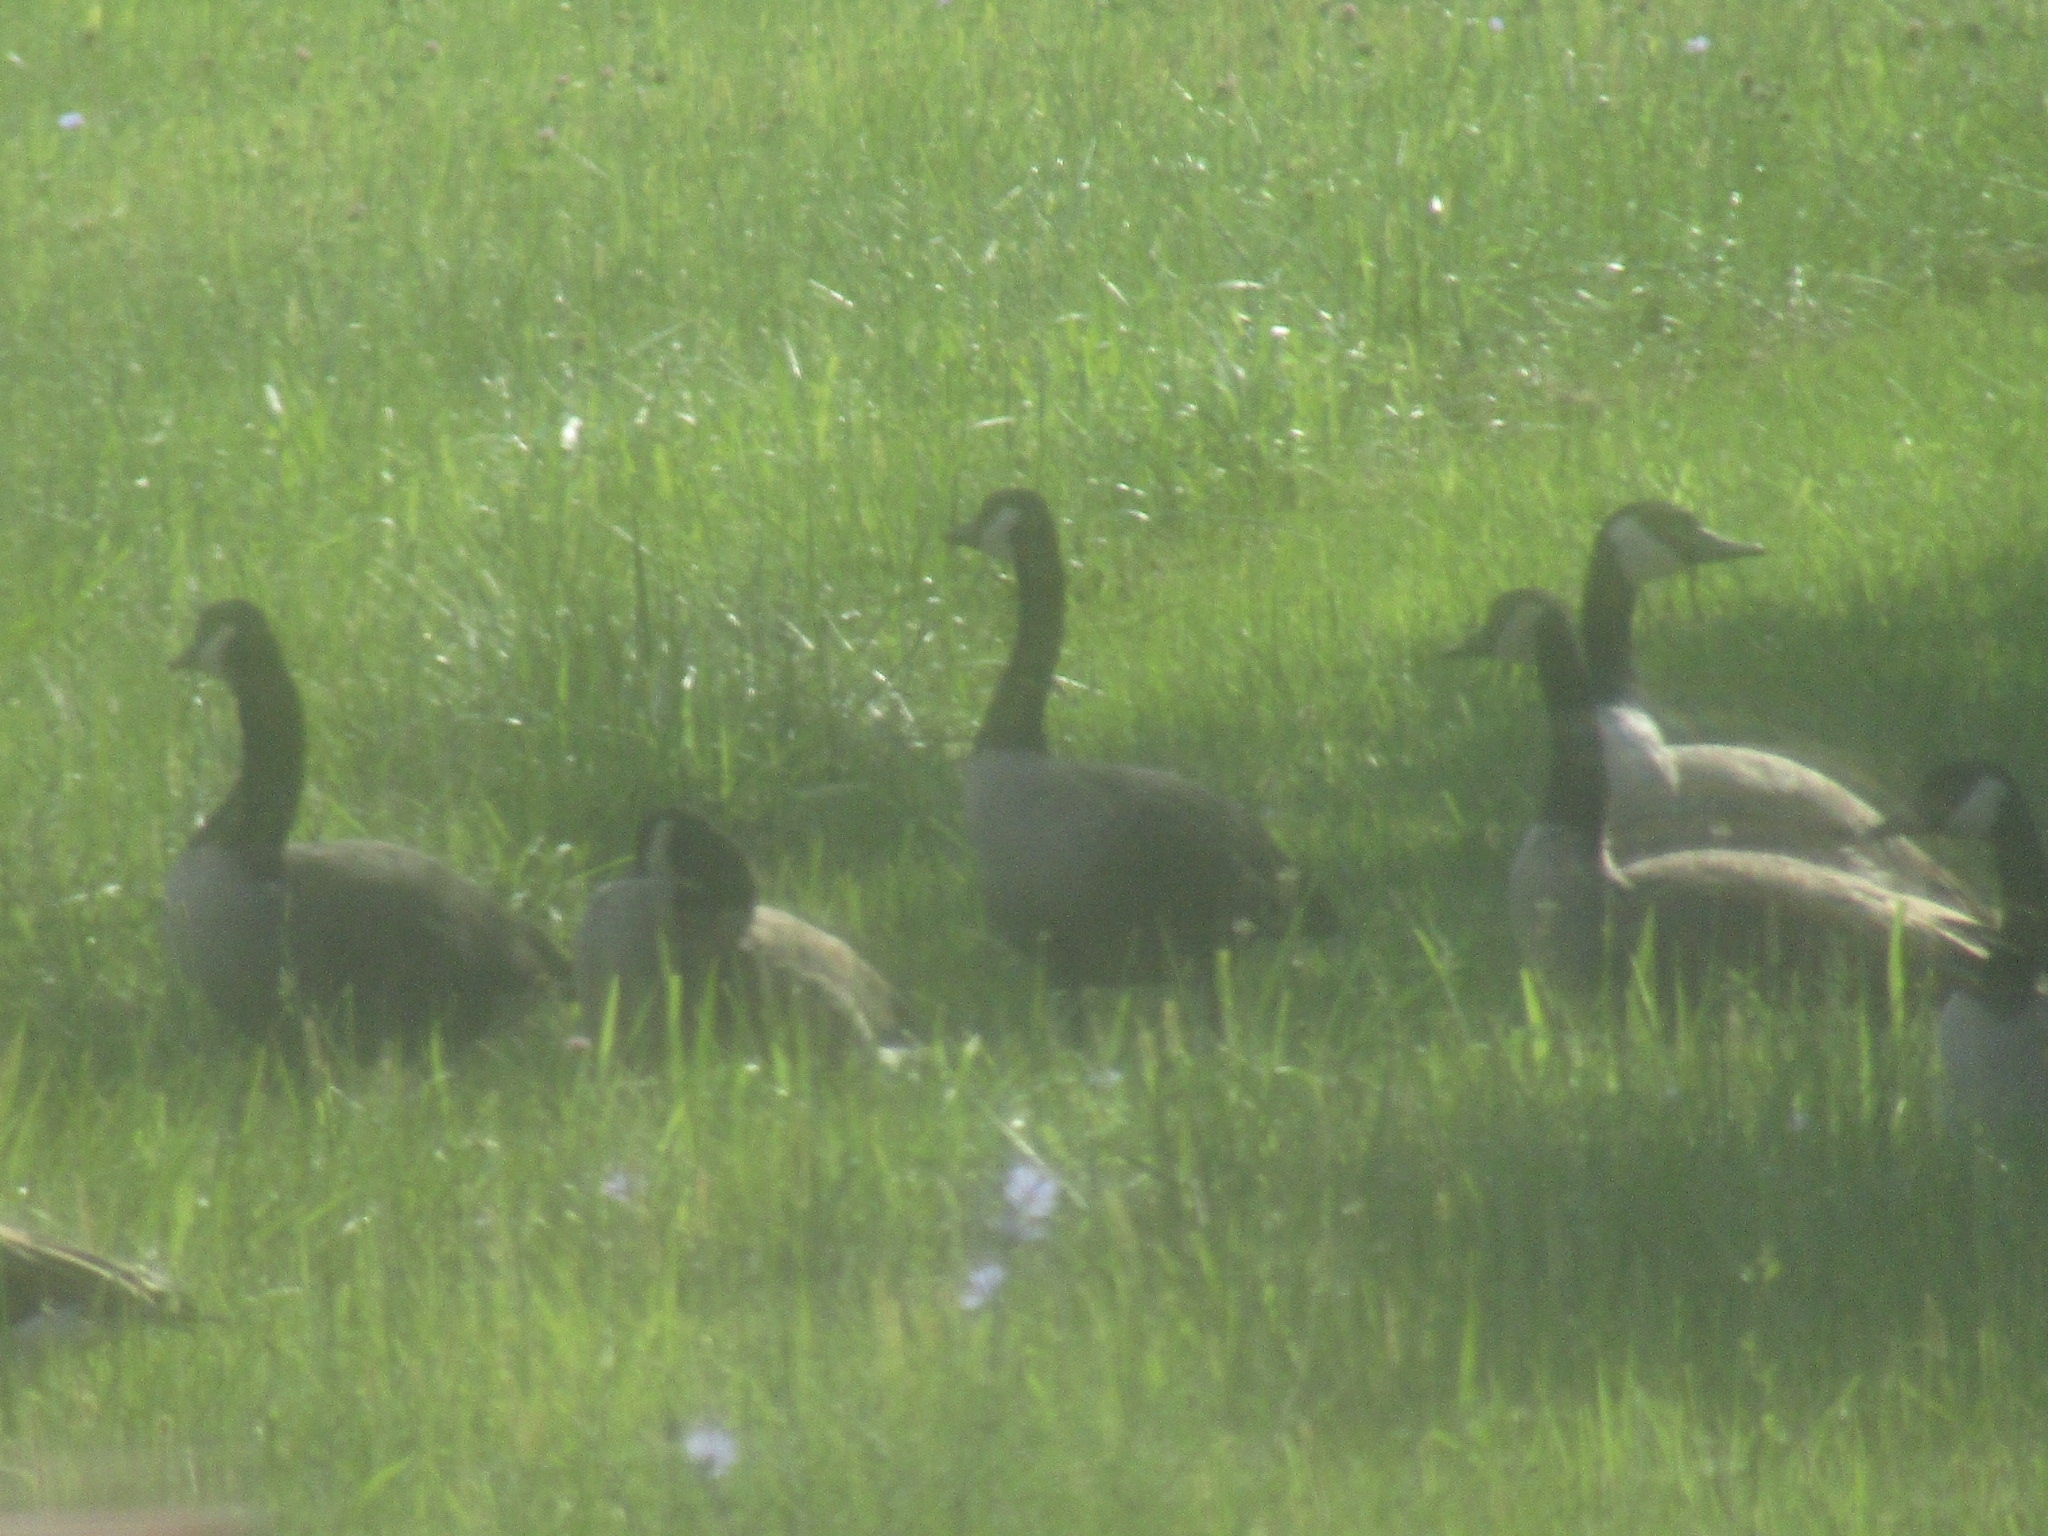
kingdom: Animalia
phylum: Chordata
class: Aves
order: Anseriformes
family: Anatidae
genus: Branta
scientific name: Branta canadensis
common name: Canada goose
